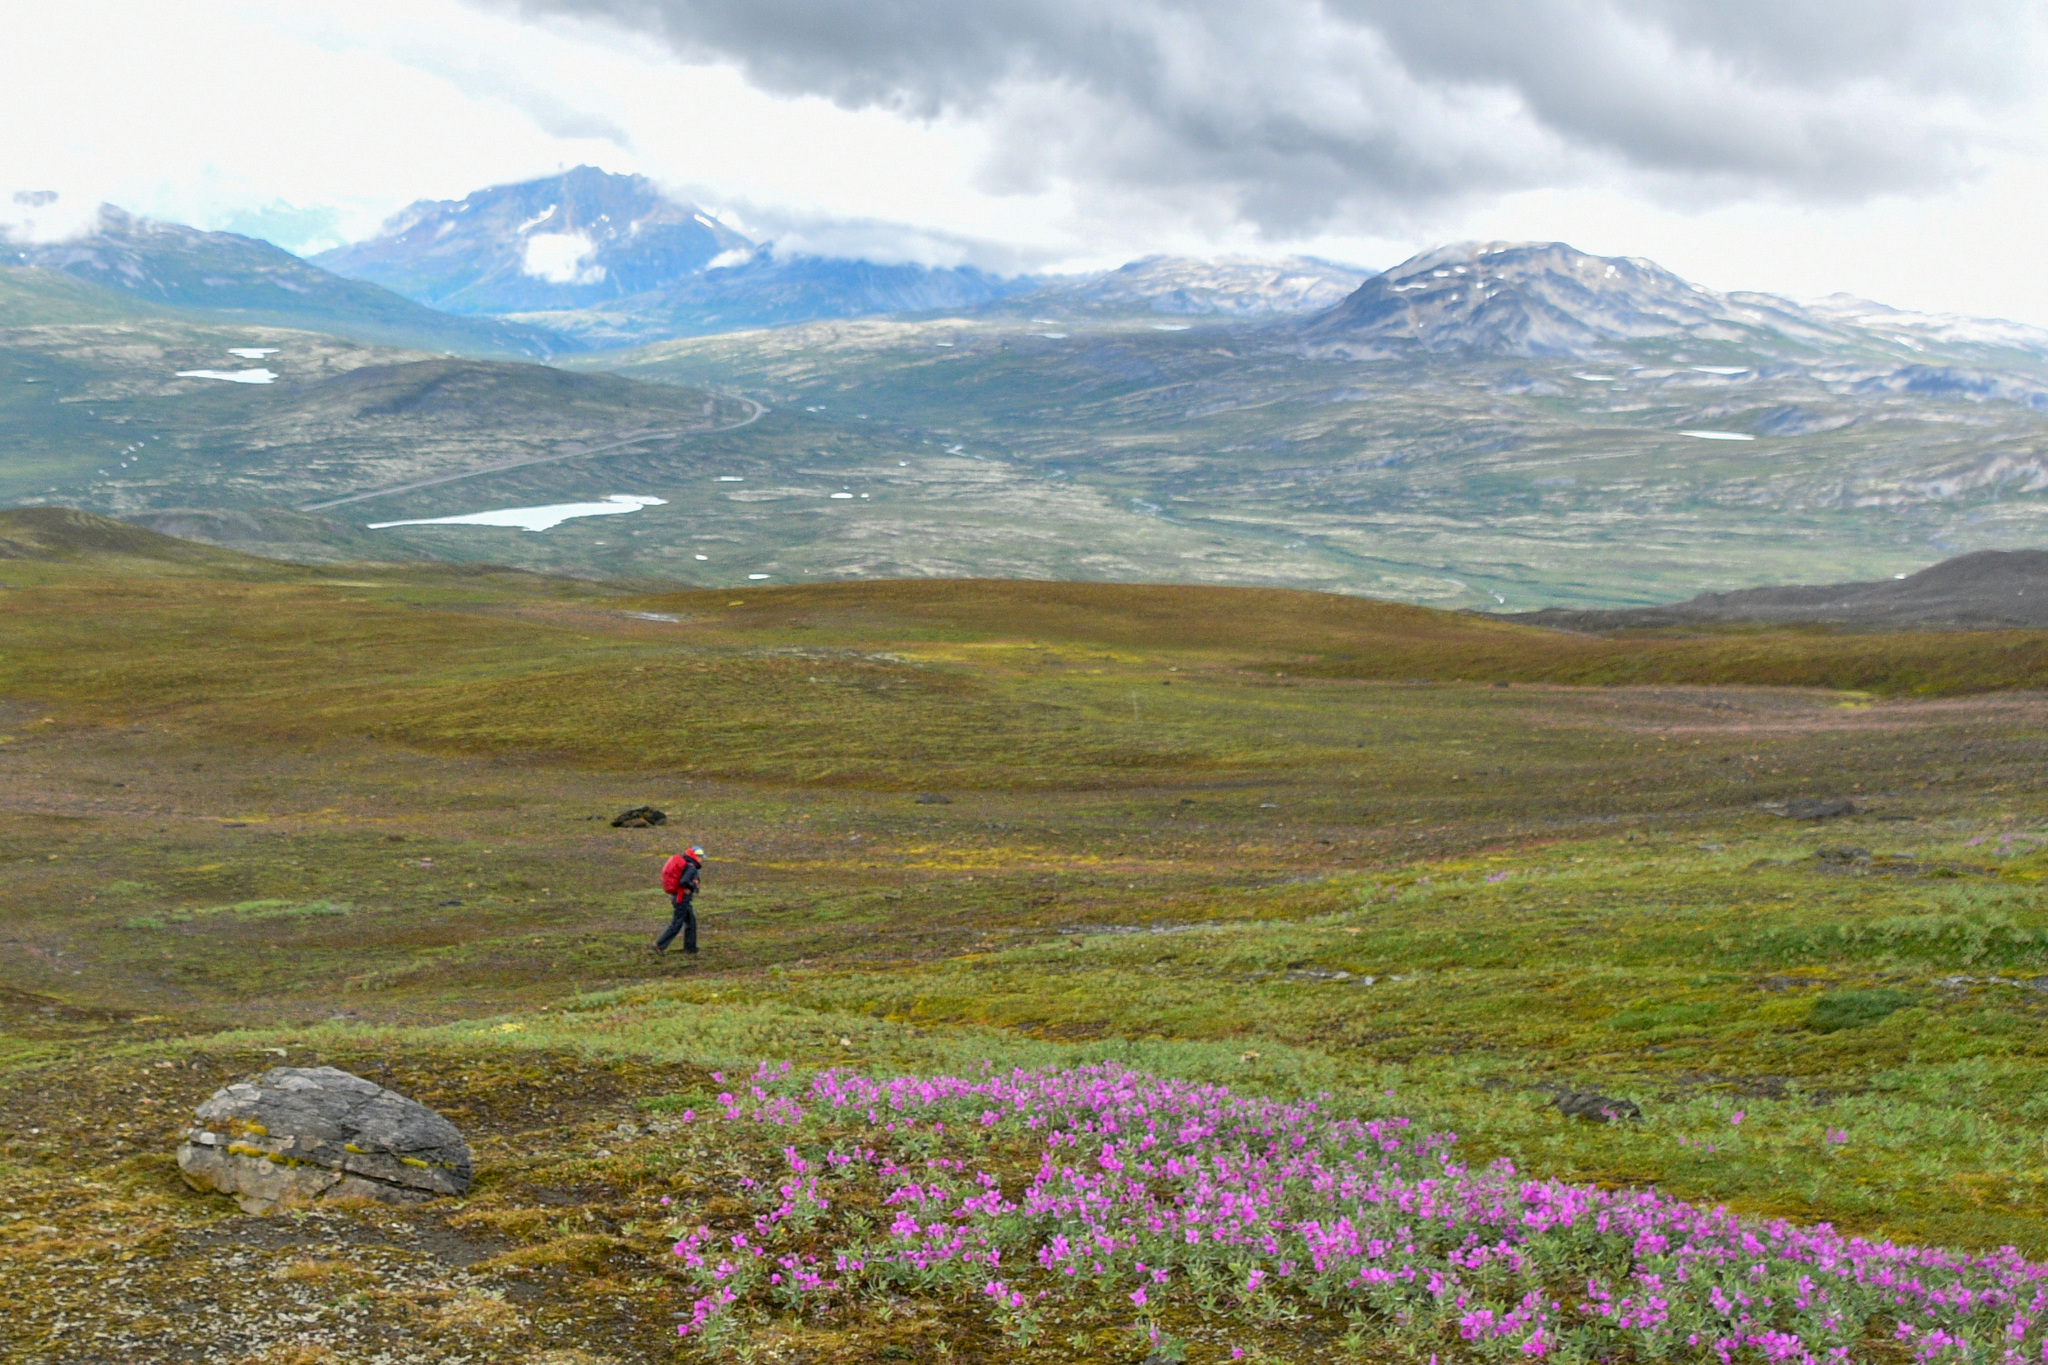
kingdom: Plantae
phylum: Tracheophyta
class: Magnoliopsida
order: Myrtales
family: Onagraceae
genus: Chamaenerion
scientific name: Chamaenerion latifolium
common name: Dwarf fireweed
